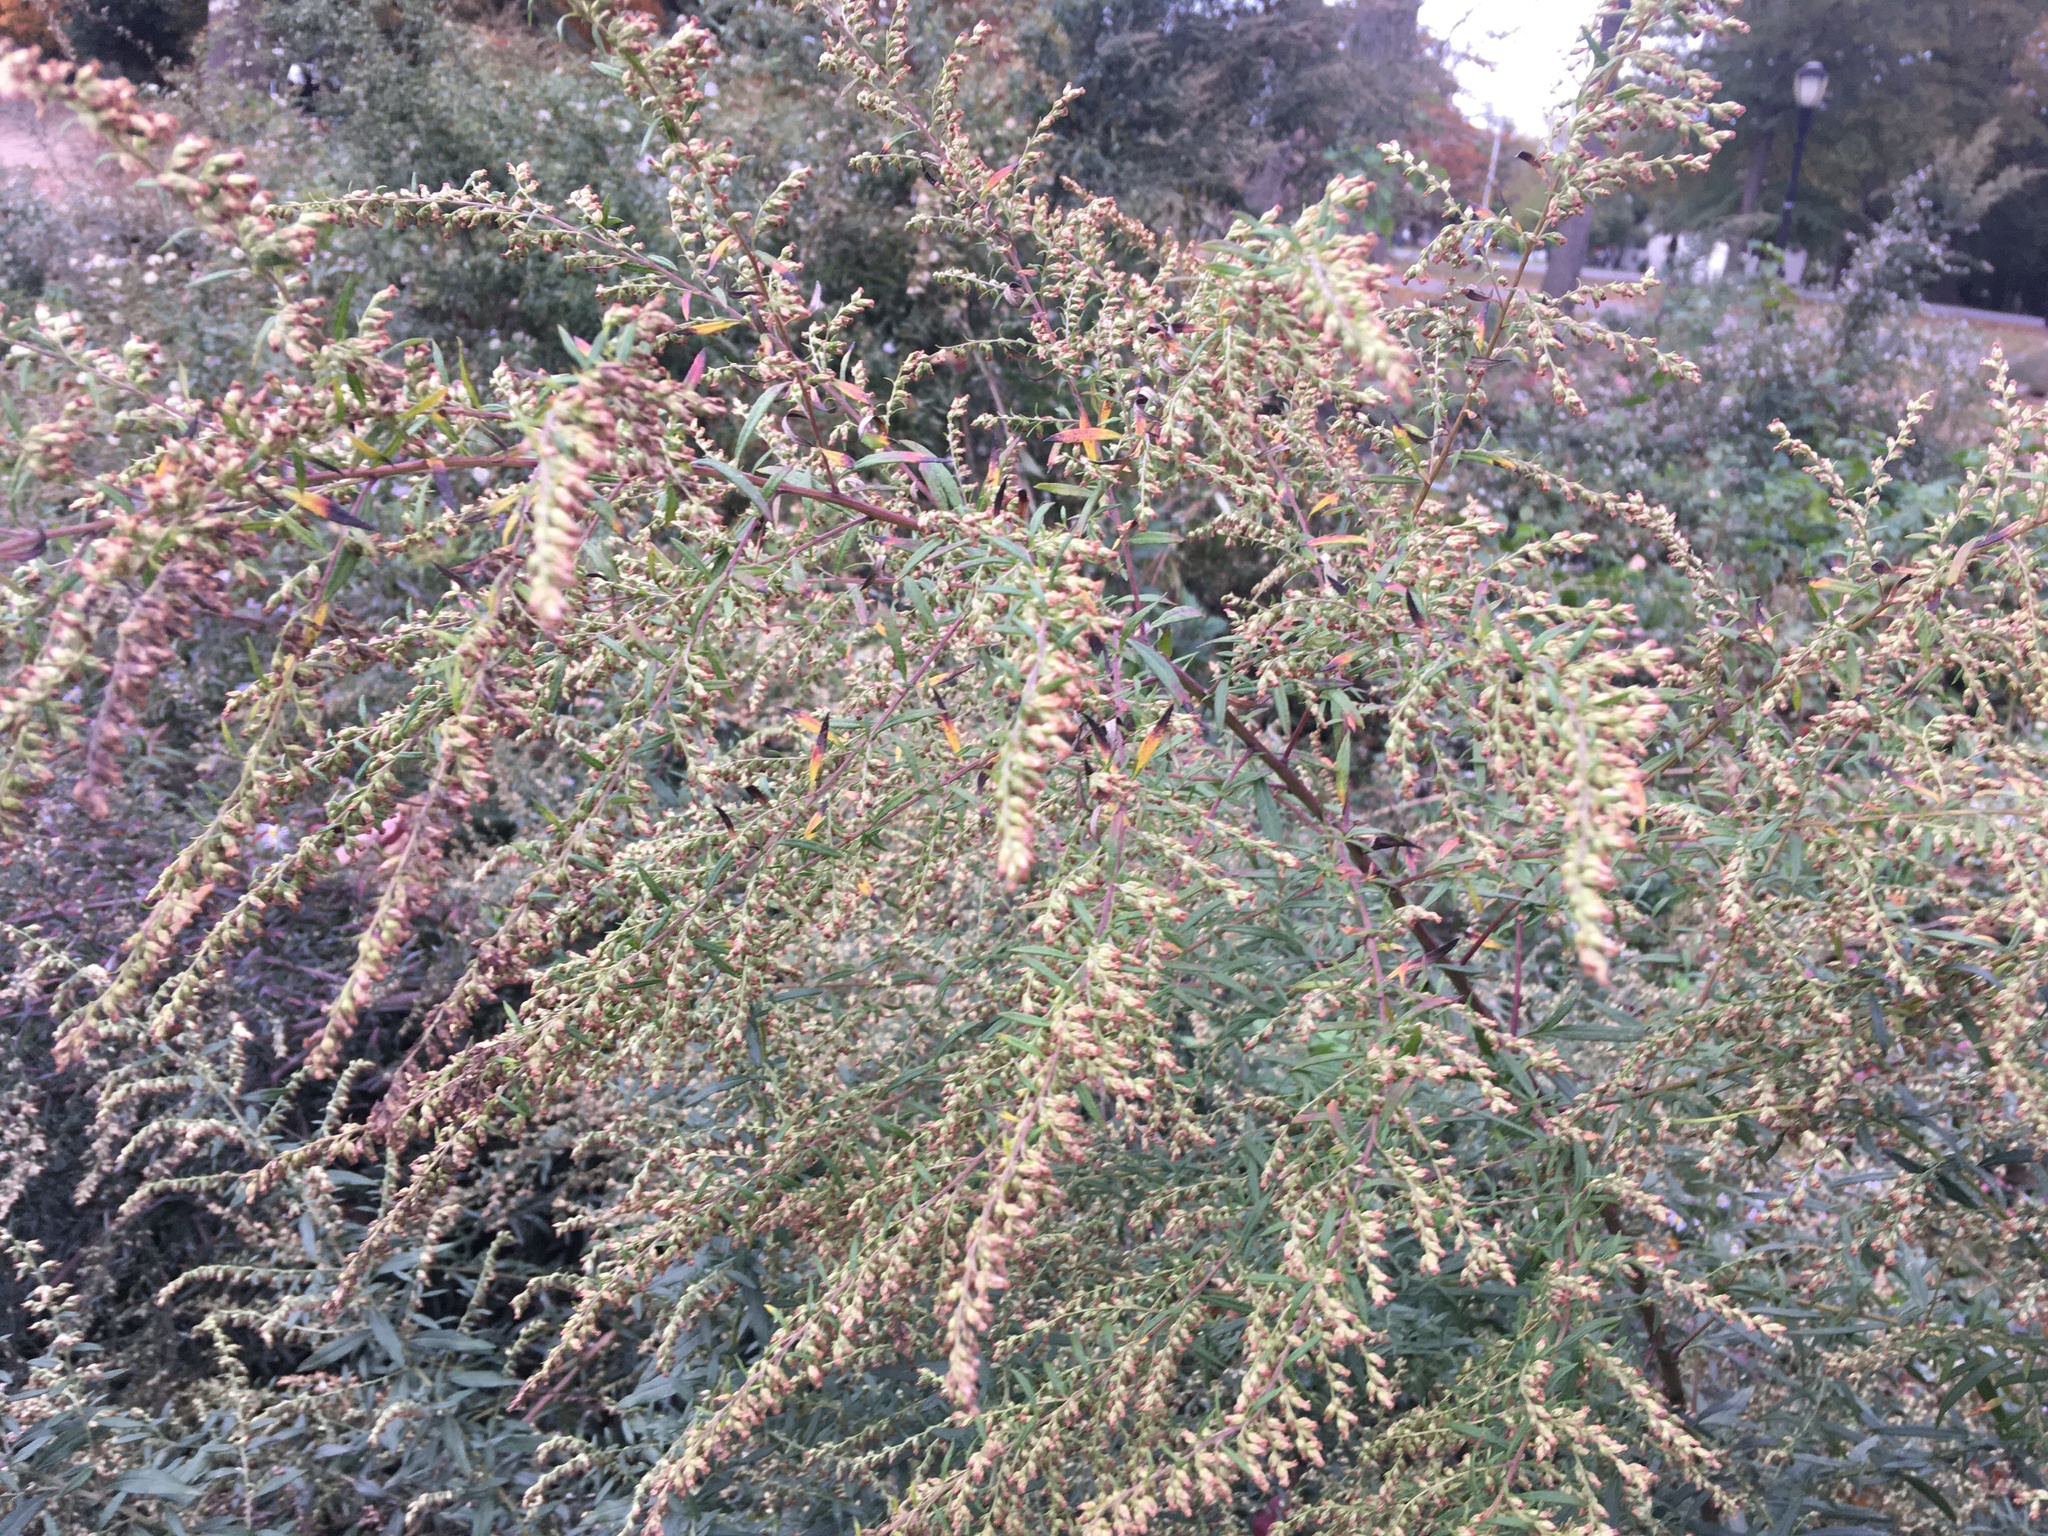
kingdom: Plantae
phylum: Tracheophyta
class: Magnoliopsida
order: Asterales
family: Asteraceae
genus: Artemisia
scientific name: Artemisia vulgaris
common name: Mugwort
